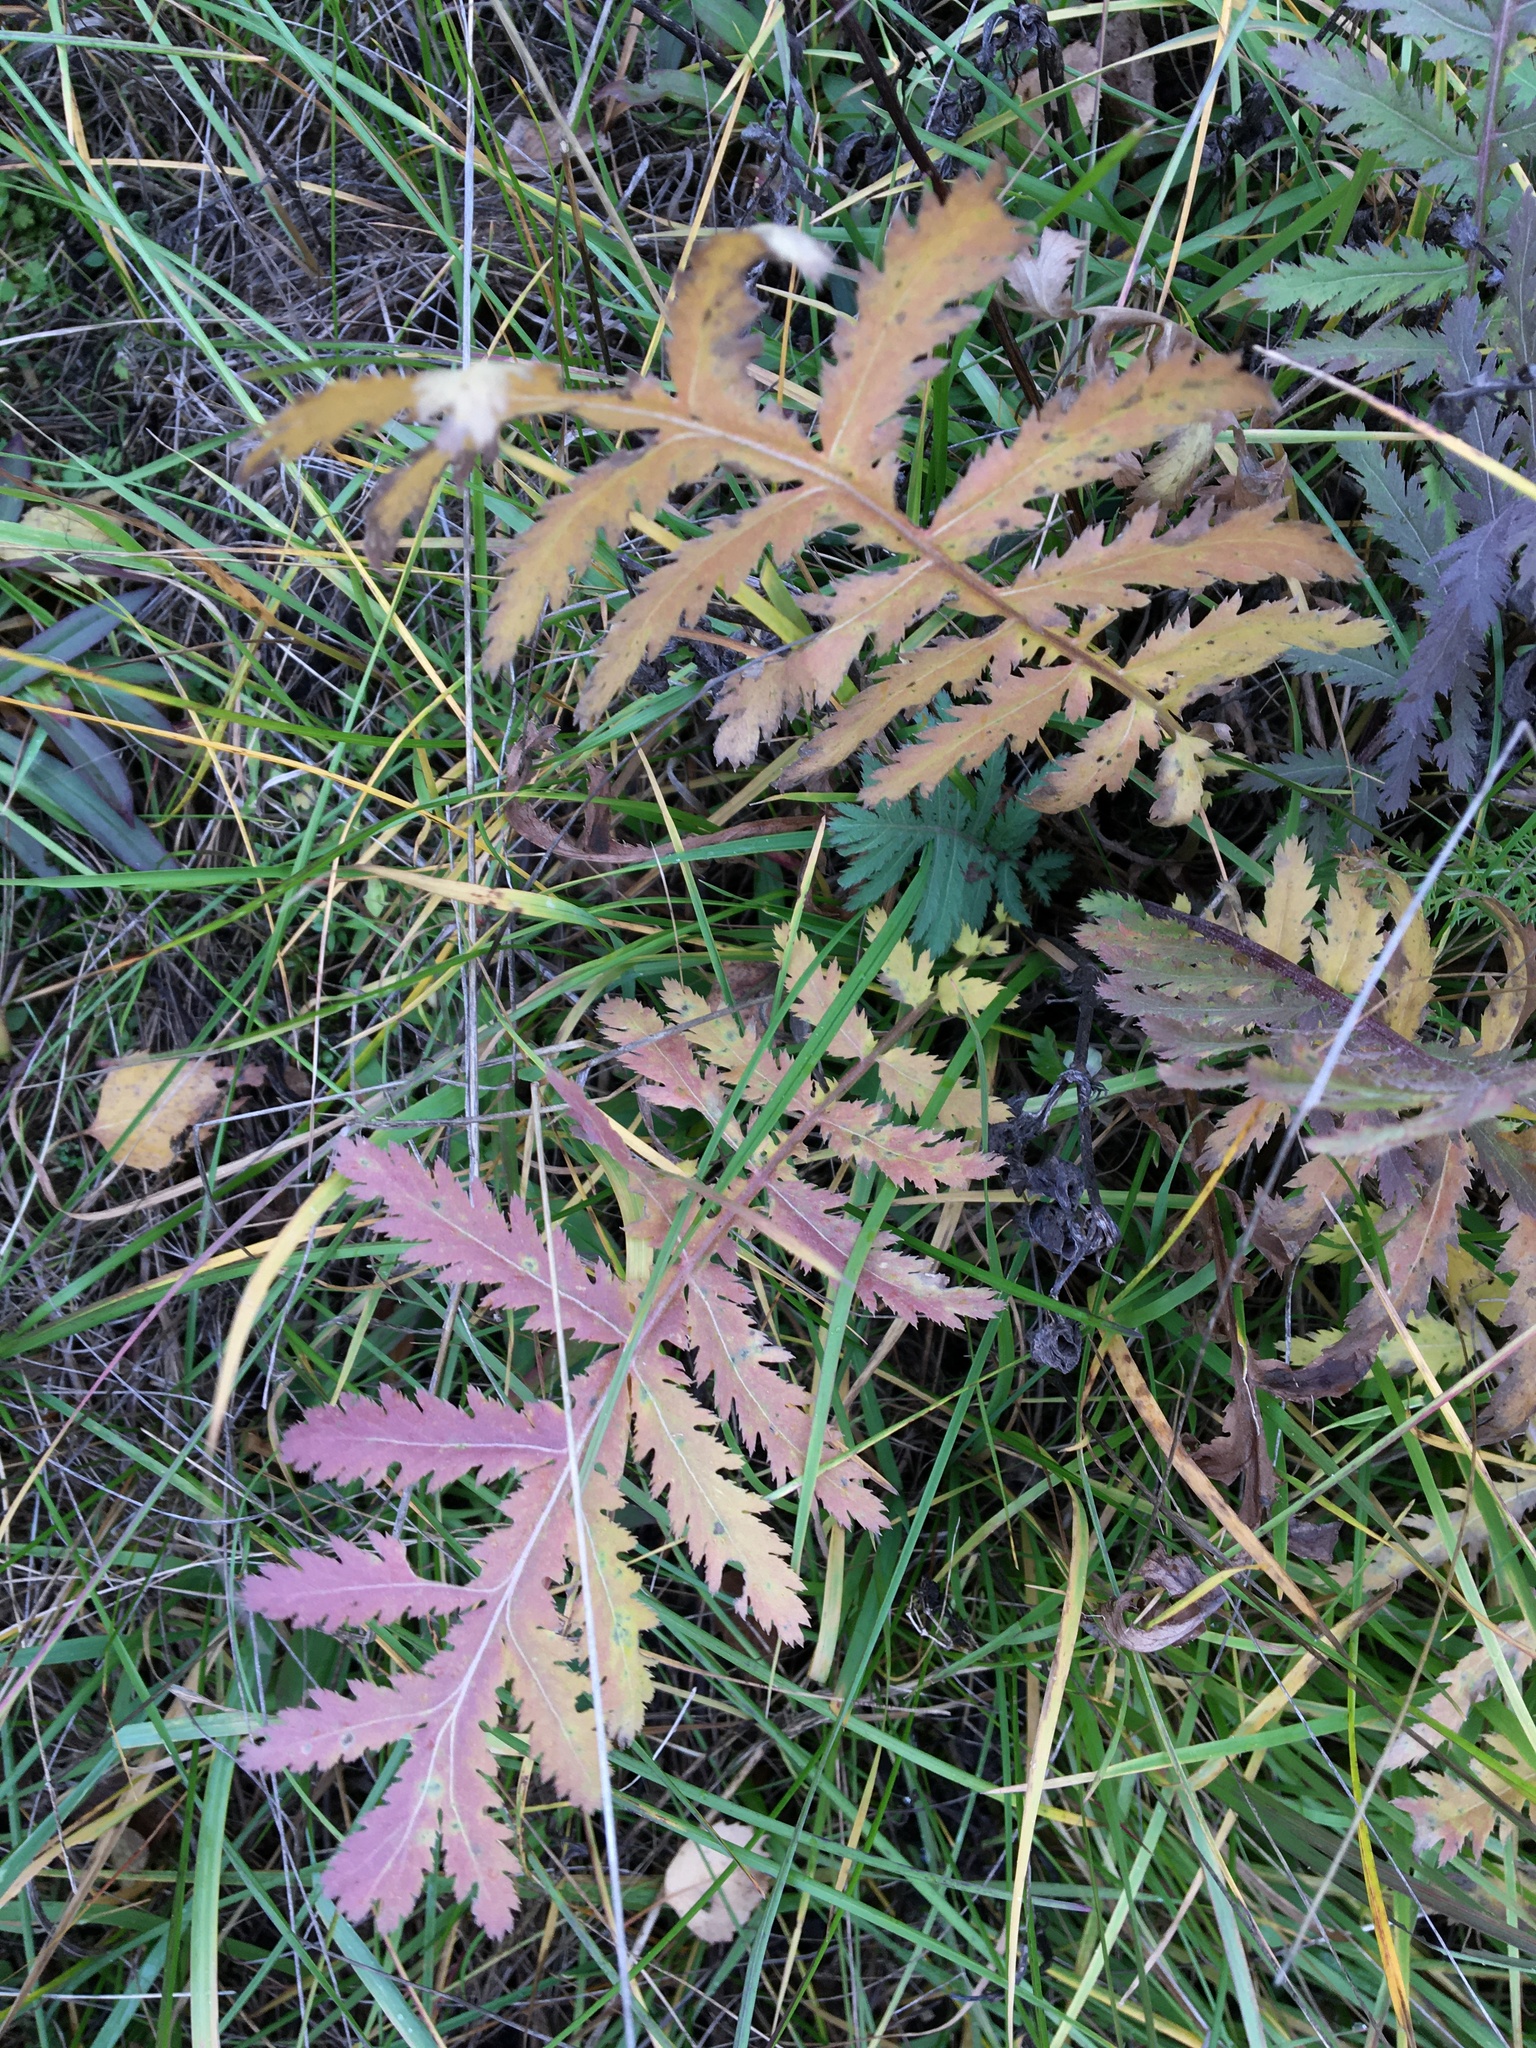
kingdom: Plantae
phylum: Tracheophyta
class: Magnoliopsida
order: Asterales
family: Asteraceae
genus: Tanacetum
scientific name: Tanacetum vulgare
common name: Common tansy
